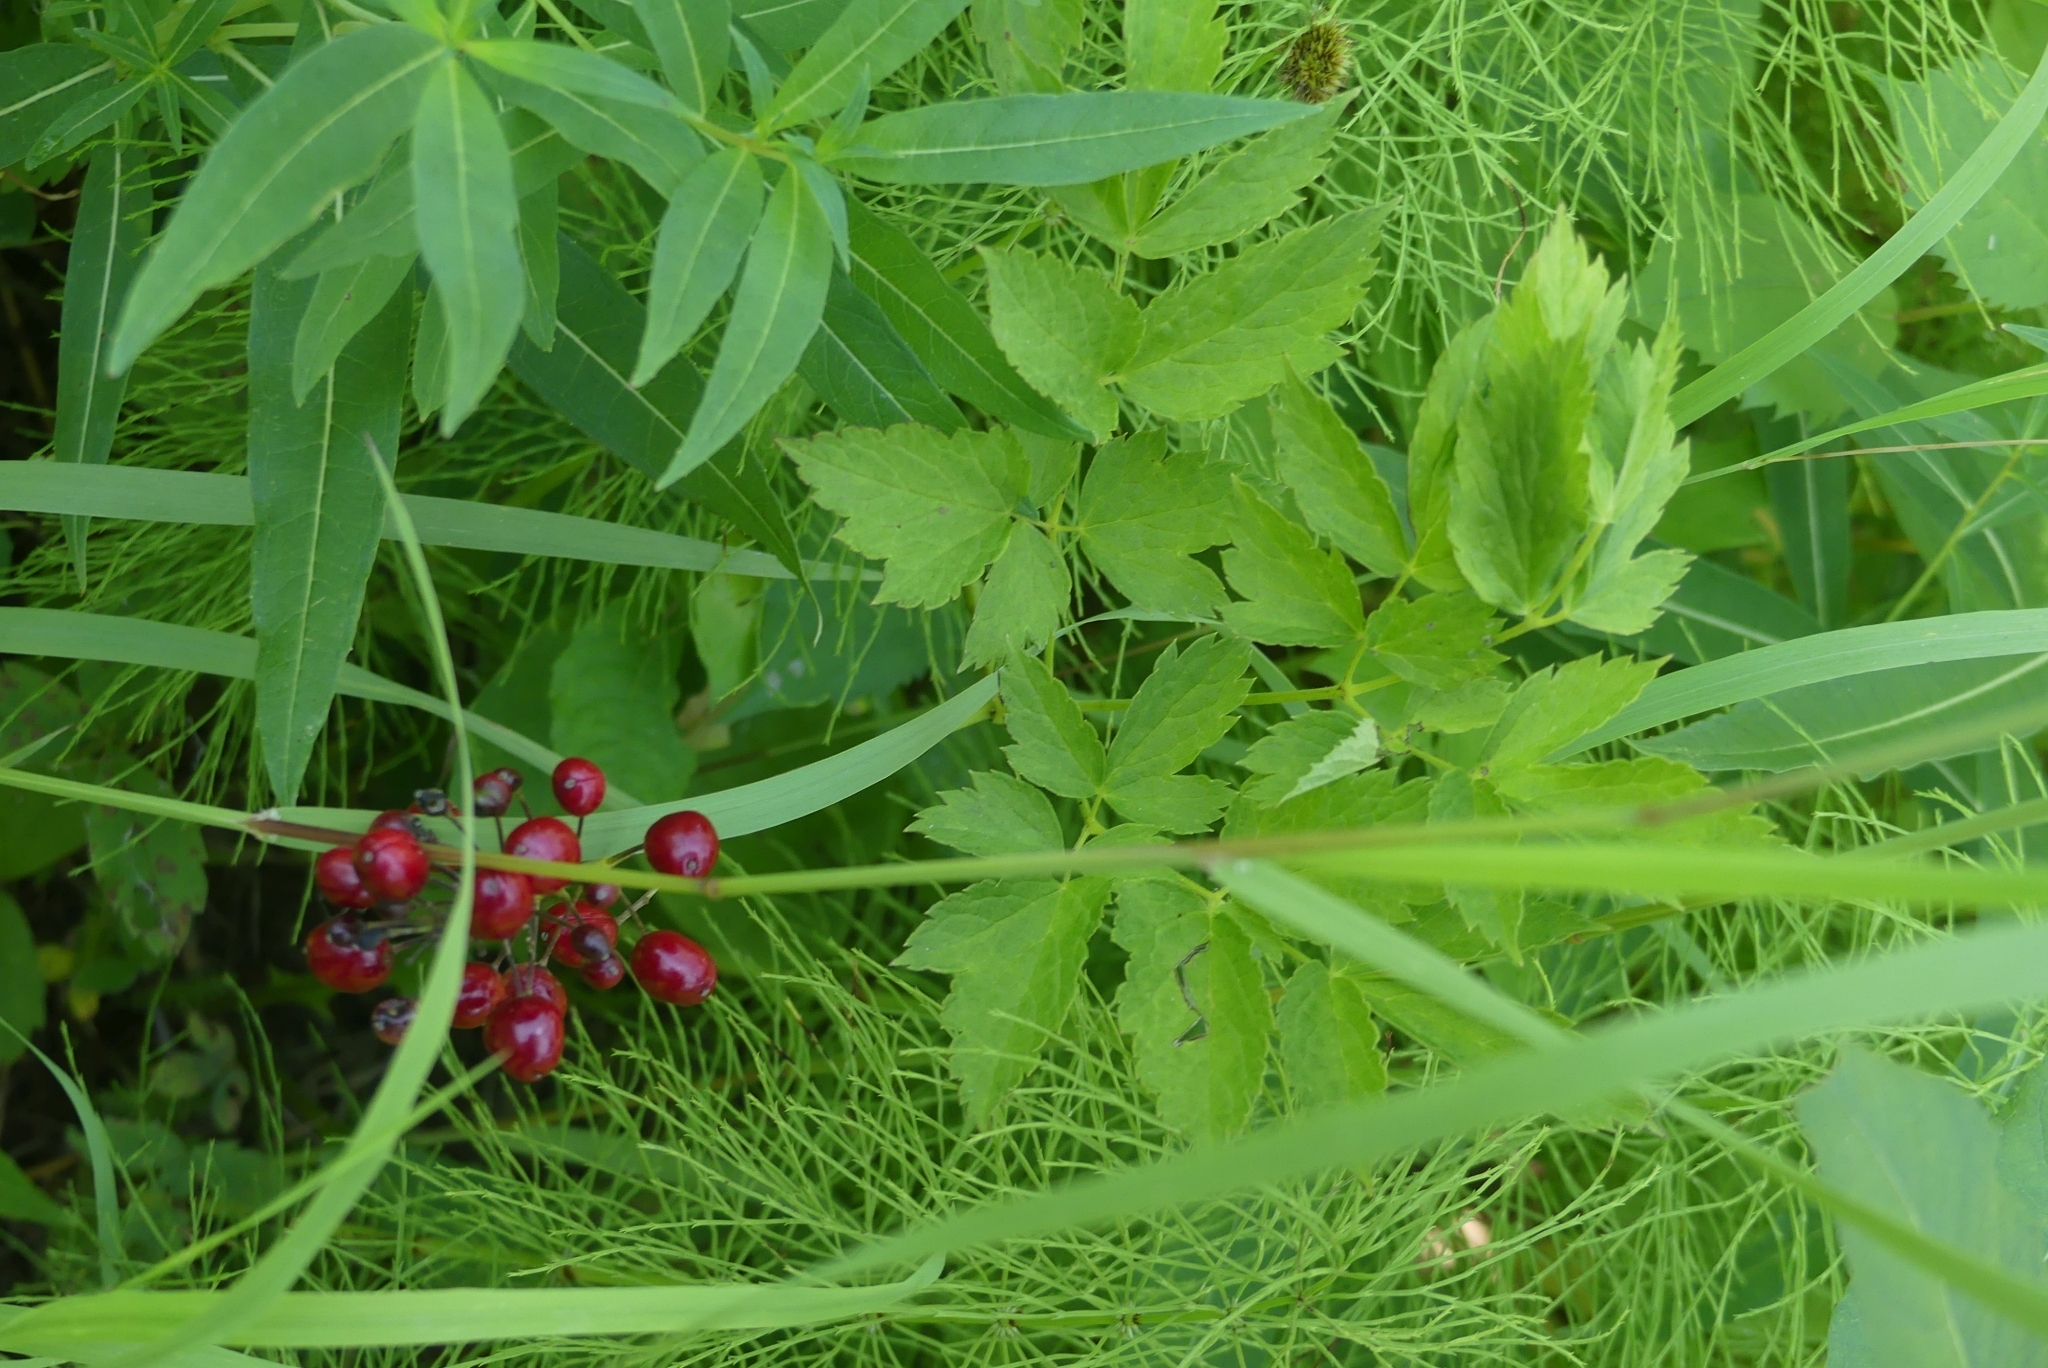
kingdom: Plantae
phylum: Tracheophyta
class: Magnoliopsida
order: Ranunculales
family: Ranunculaceae
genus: Actaea
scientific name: Actaea rubra
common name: Red baneberry
